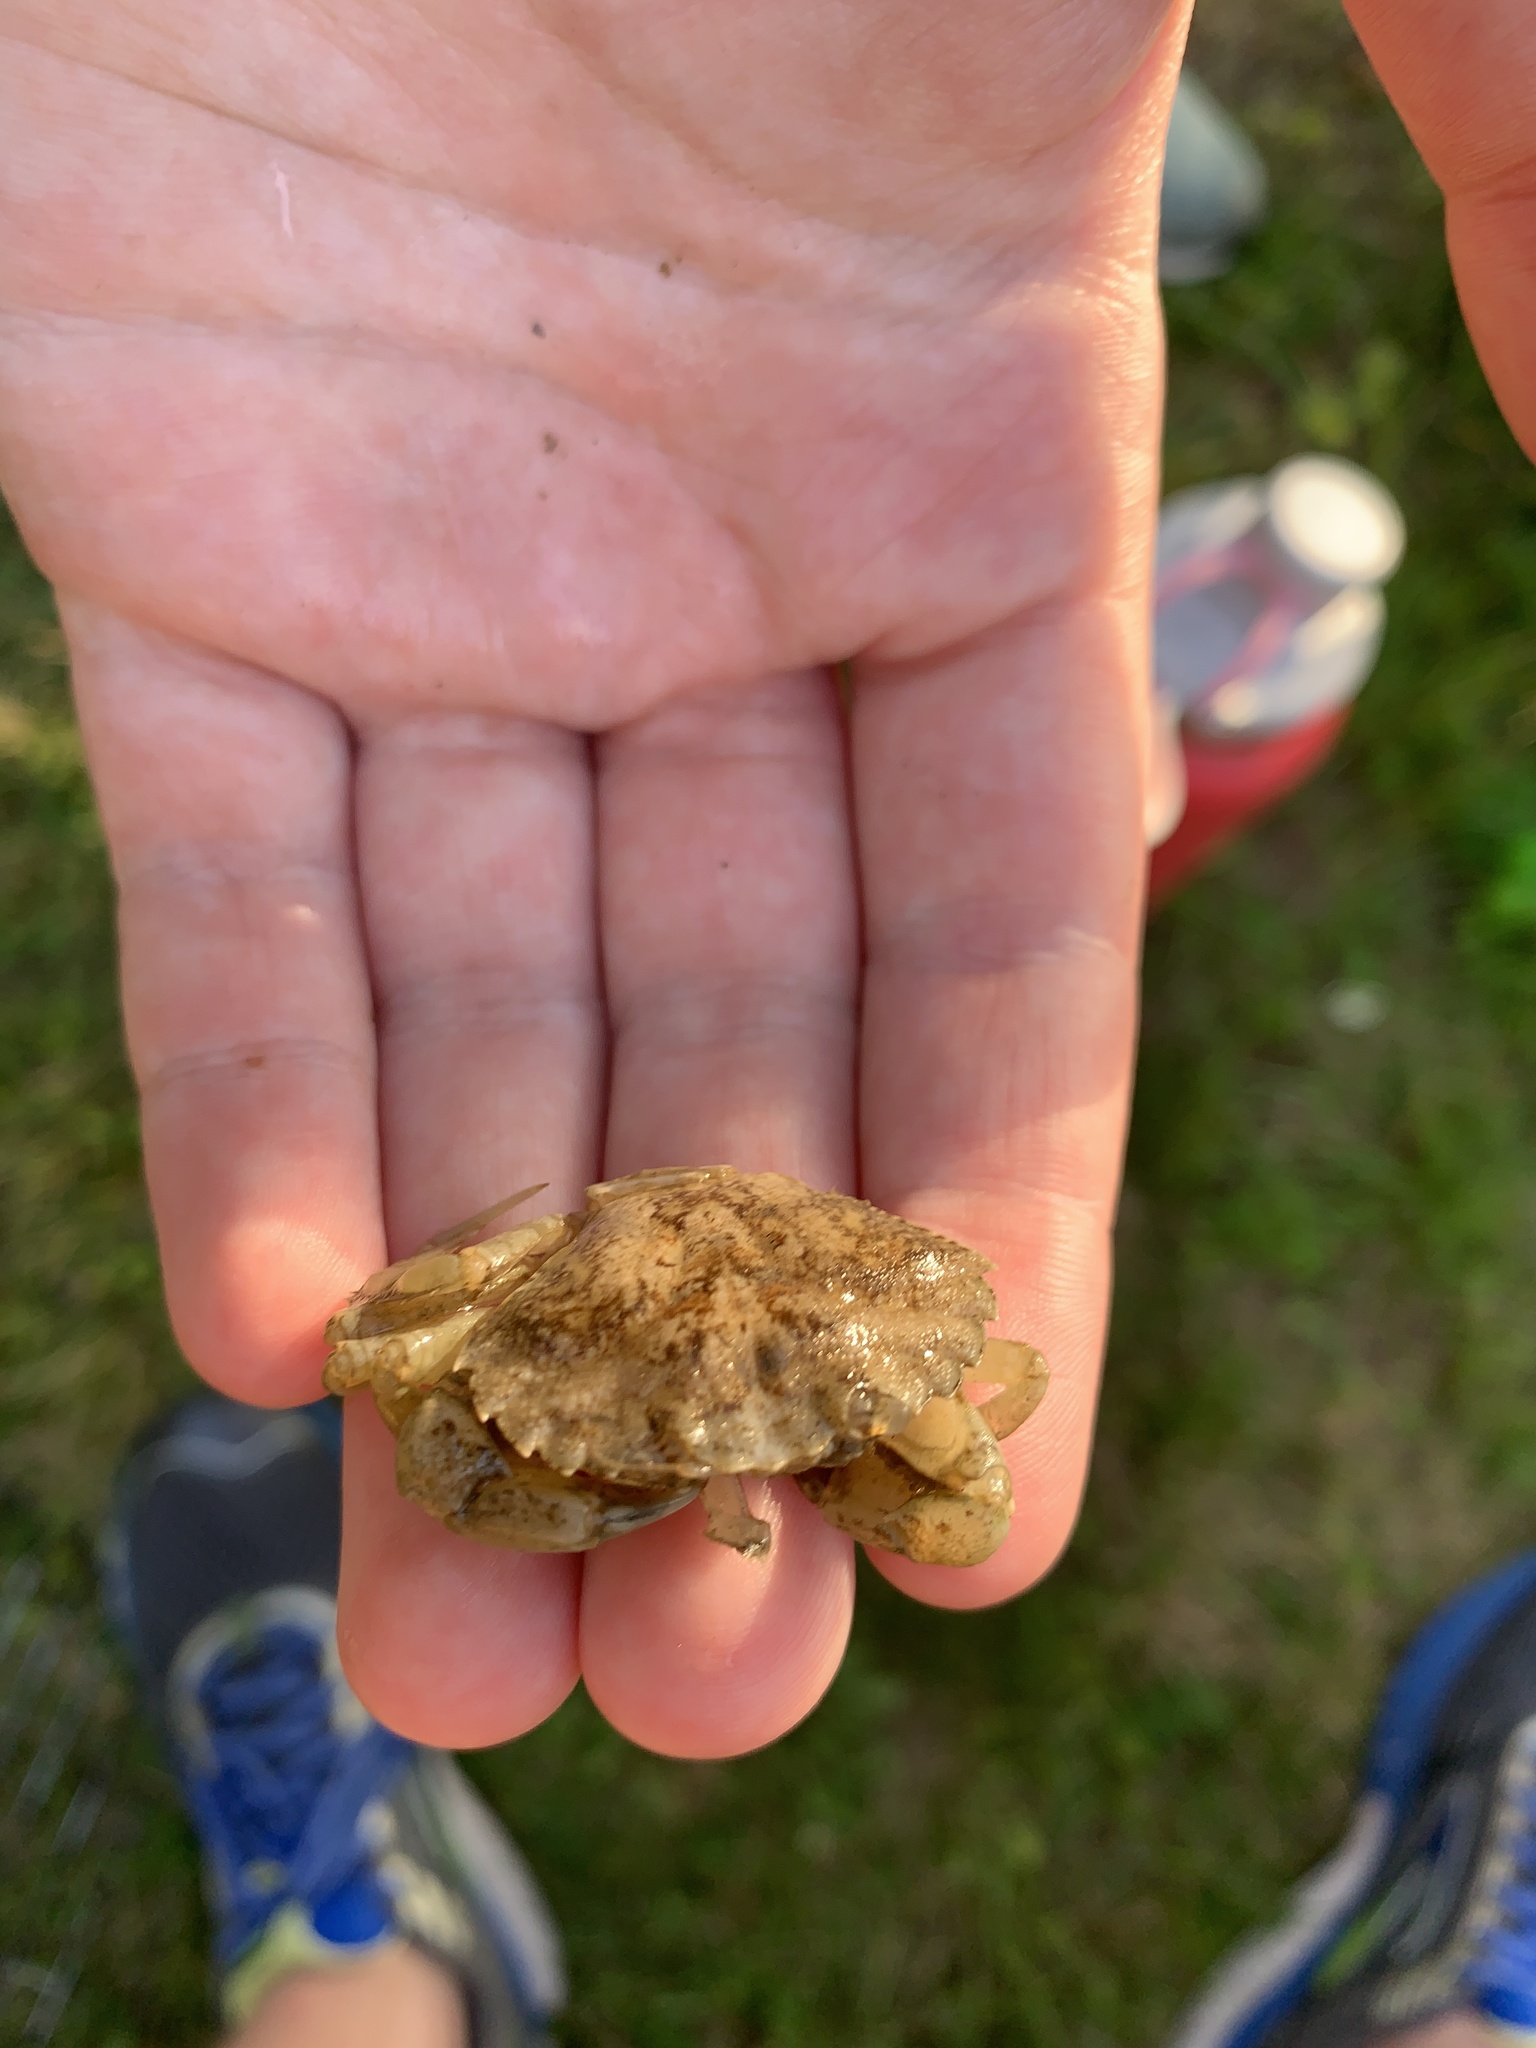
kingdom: Animalia
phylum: Arthropoda
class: Malacostraca
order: Decapoda
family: Carcinidae
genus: Carcinus
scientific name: Carcinus maenas
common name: European green crab
